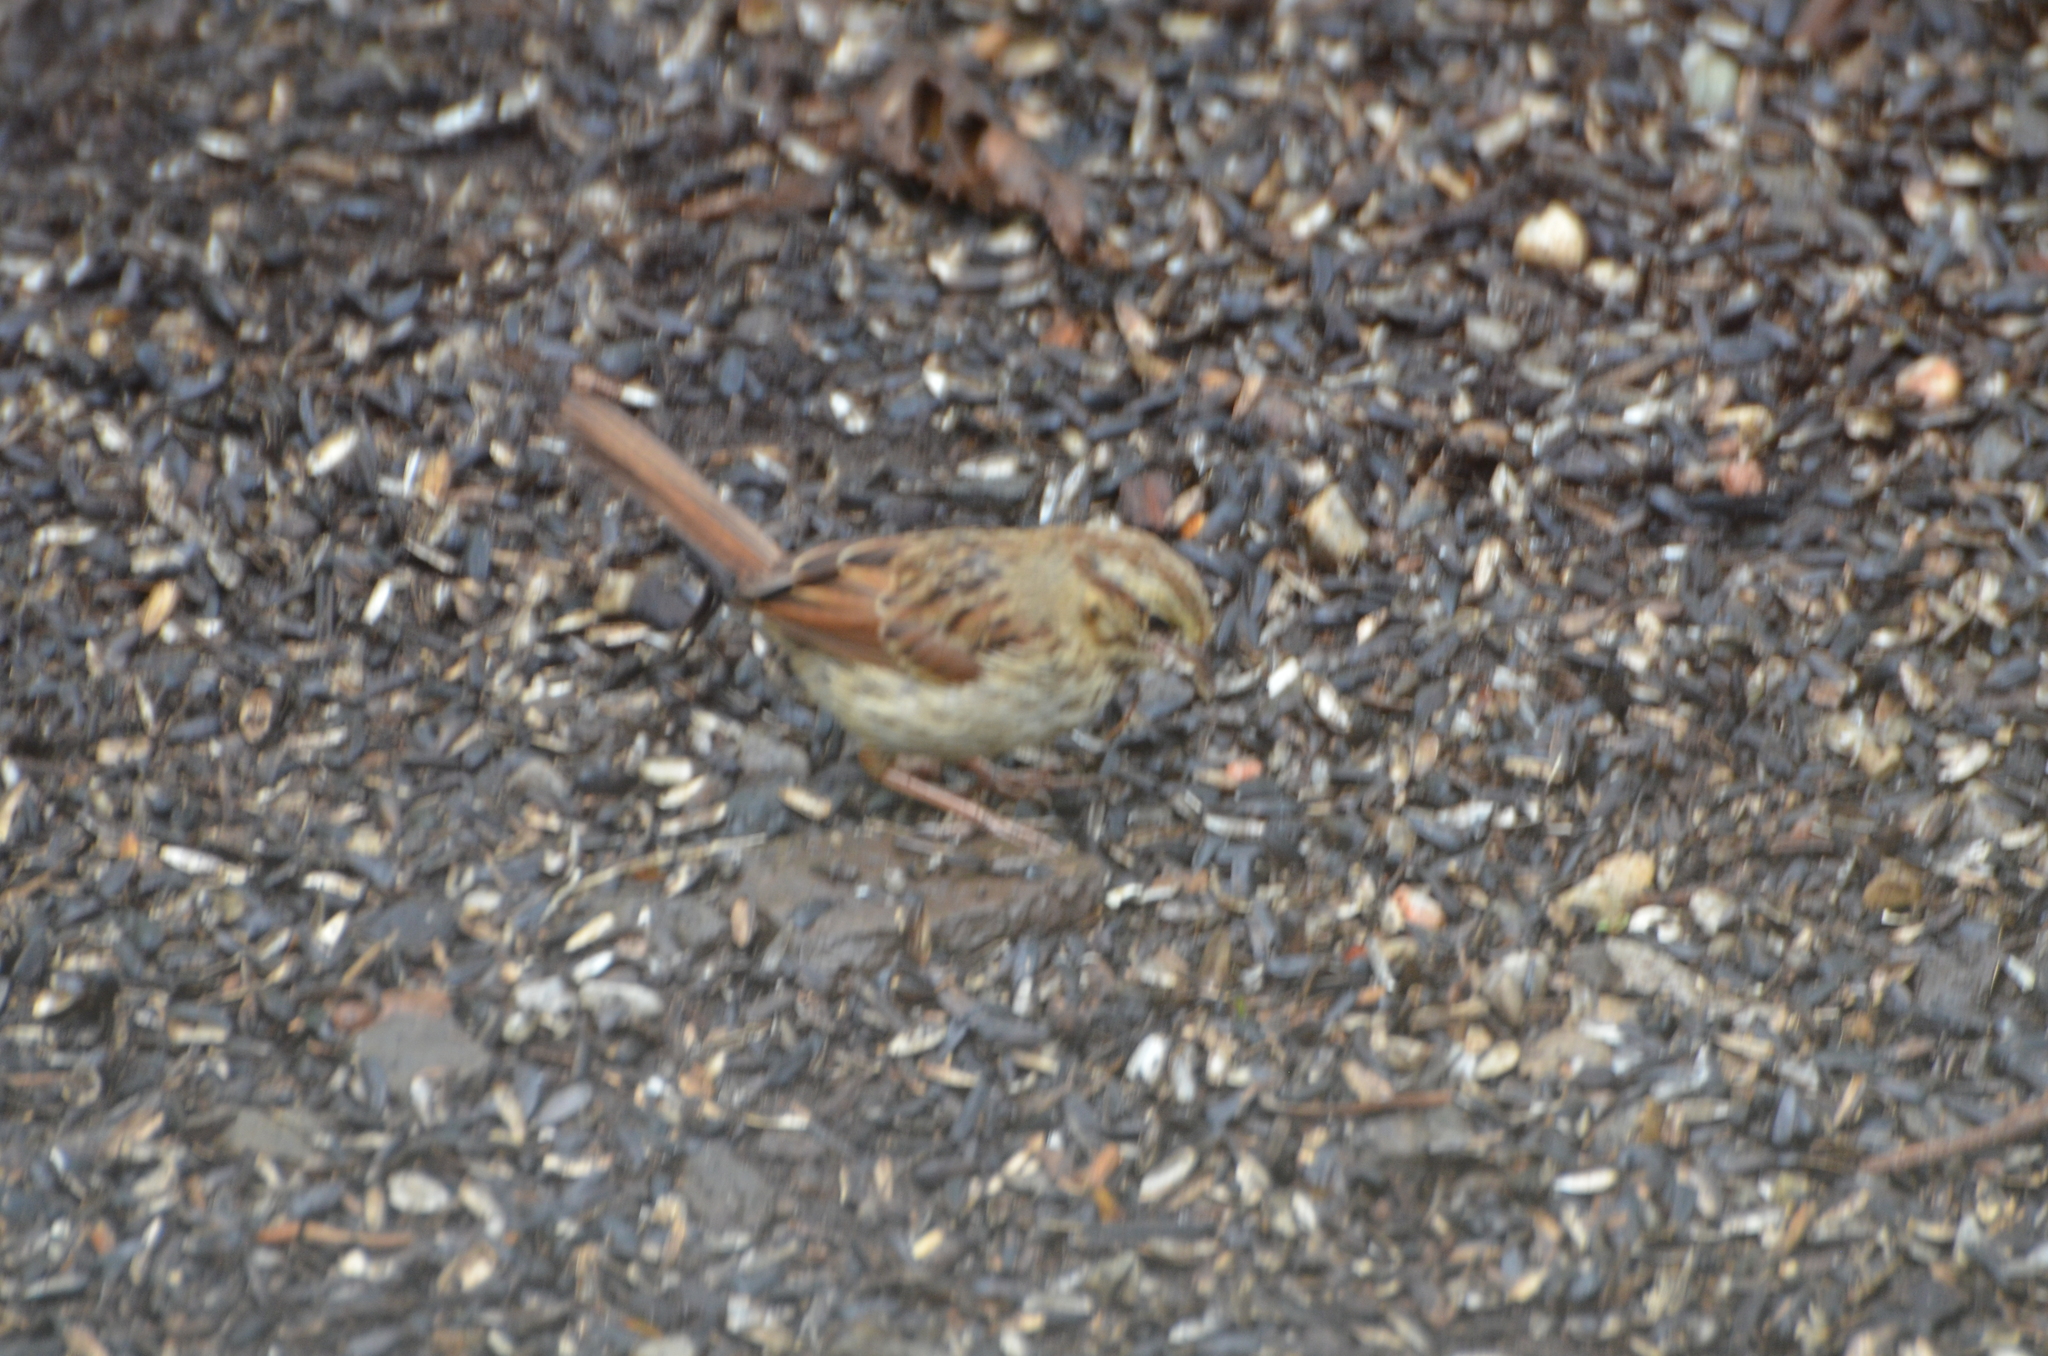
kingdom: Animalia
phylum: Chordata
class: Aves
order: Passeriformes
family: Passerellidae
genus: Melospiza
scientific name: Melospiza melodia
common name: Song sparrow
